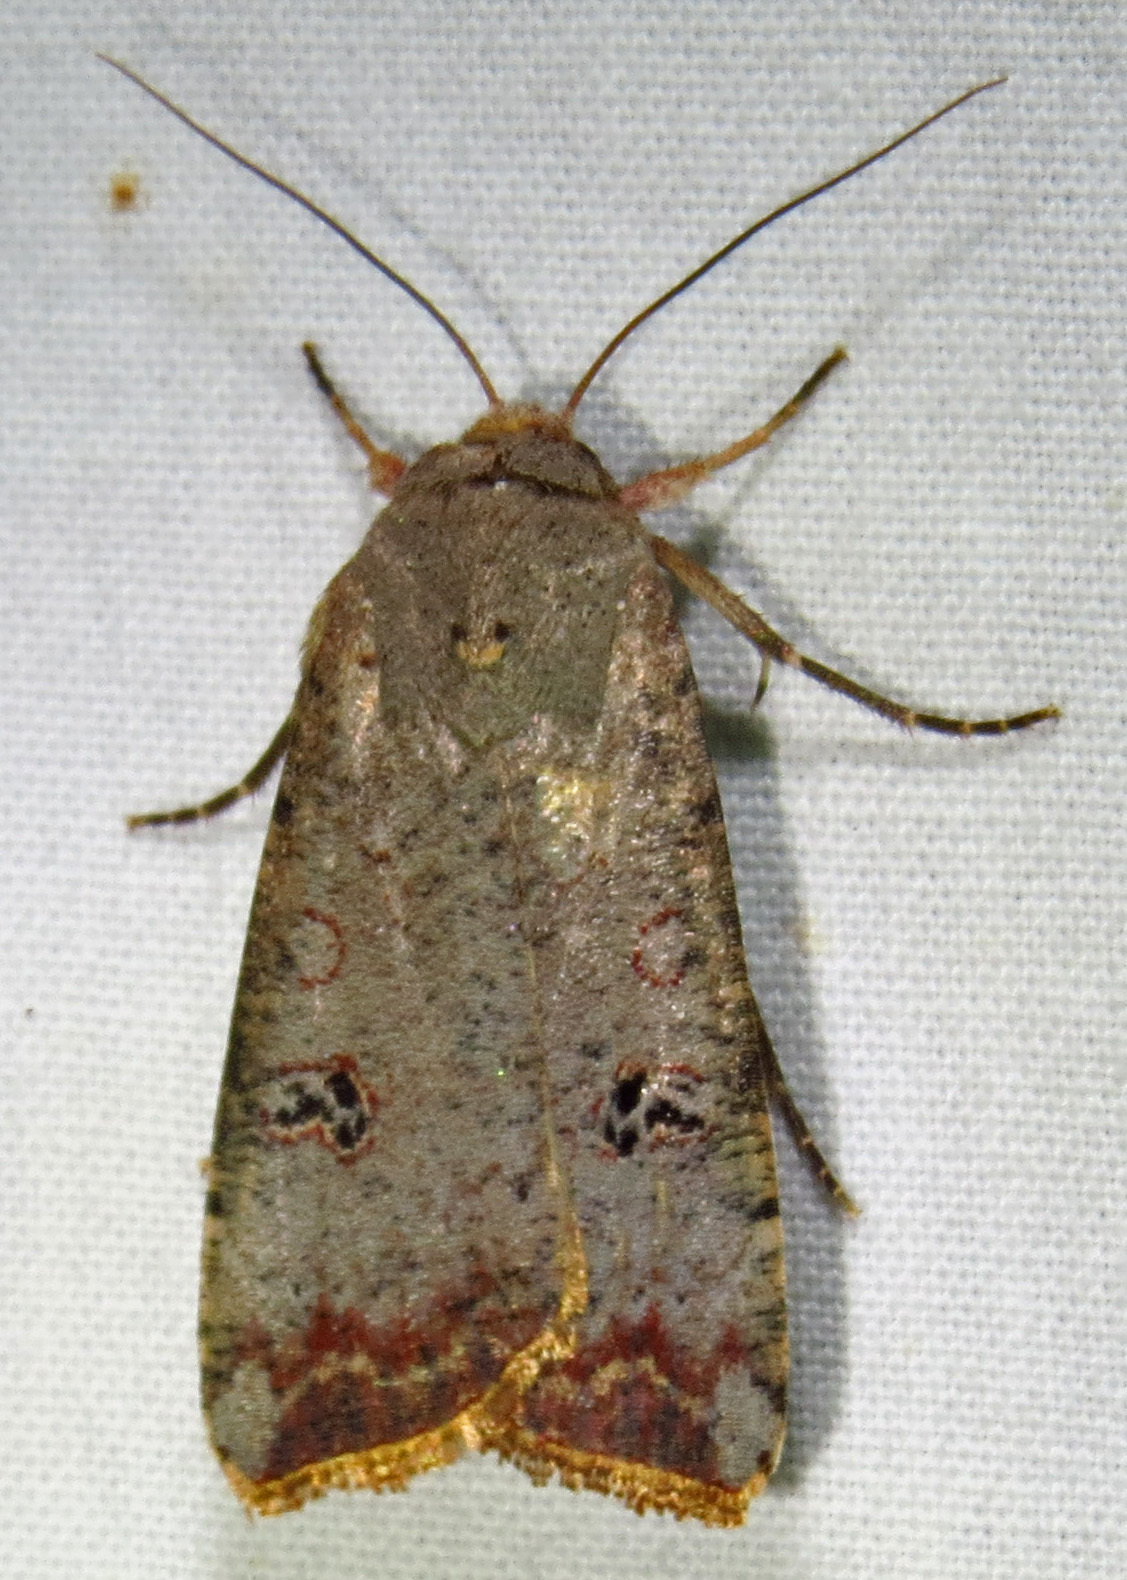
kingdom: Animalia
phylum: Arthropoda
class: Insecta
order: Lepidoptera
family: Noctuidae
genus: Anicla
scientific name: Anicla infecta
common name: Green cutworm
